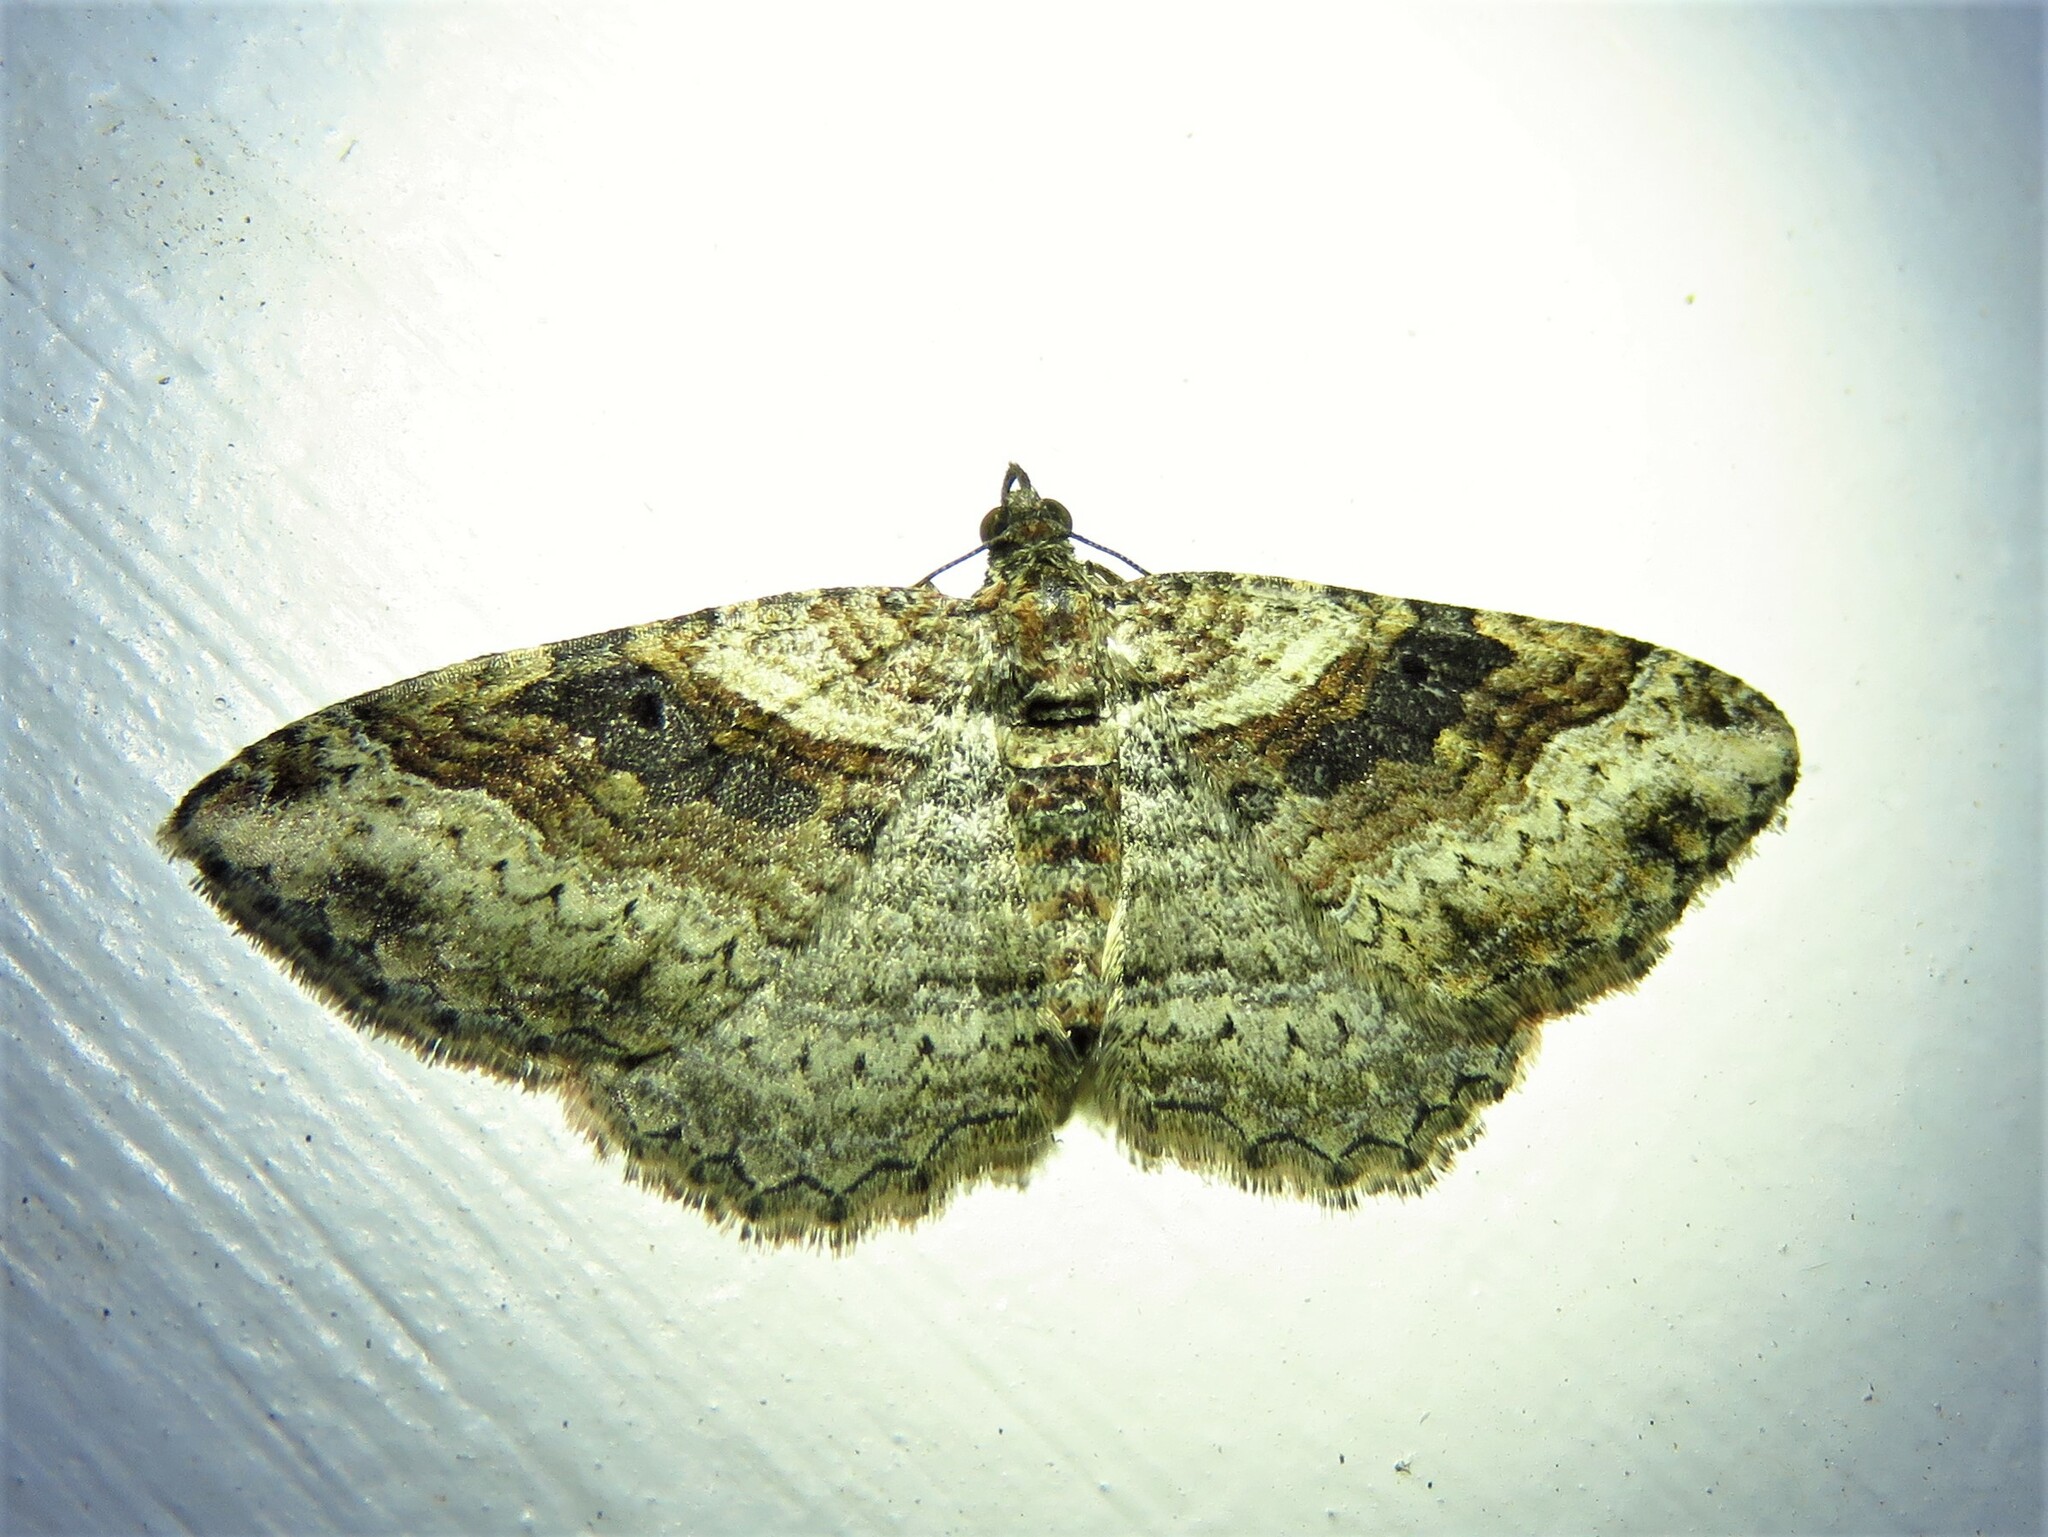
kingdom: Animalia
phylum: Arthropoda
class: Insecta
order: Lepidoptera
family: Geometridae
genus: Costaconvexa
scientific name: Costaconvexa centrostrigaria
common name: Bent-line carpet
